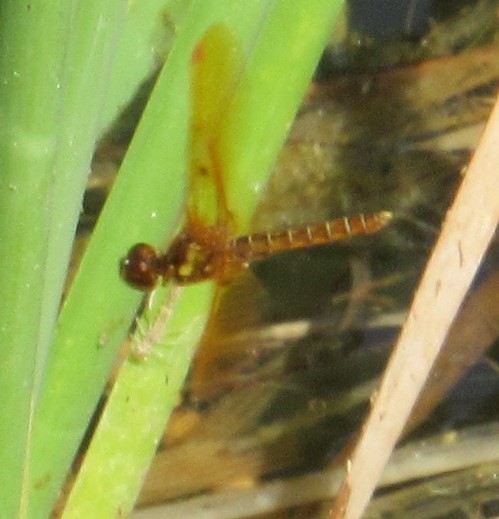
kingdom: Animalia
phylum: Arthropoda
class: Insecta
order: Odonata
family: Libellulidae
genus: Perithemis
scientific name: Perithemis tenera
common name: Eastern amberwing
